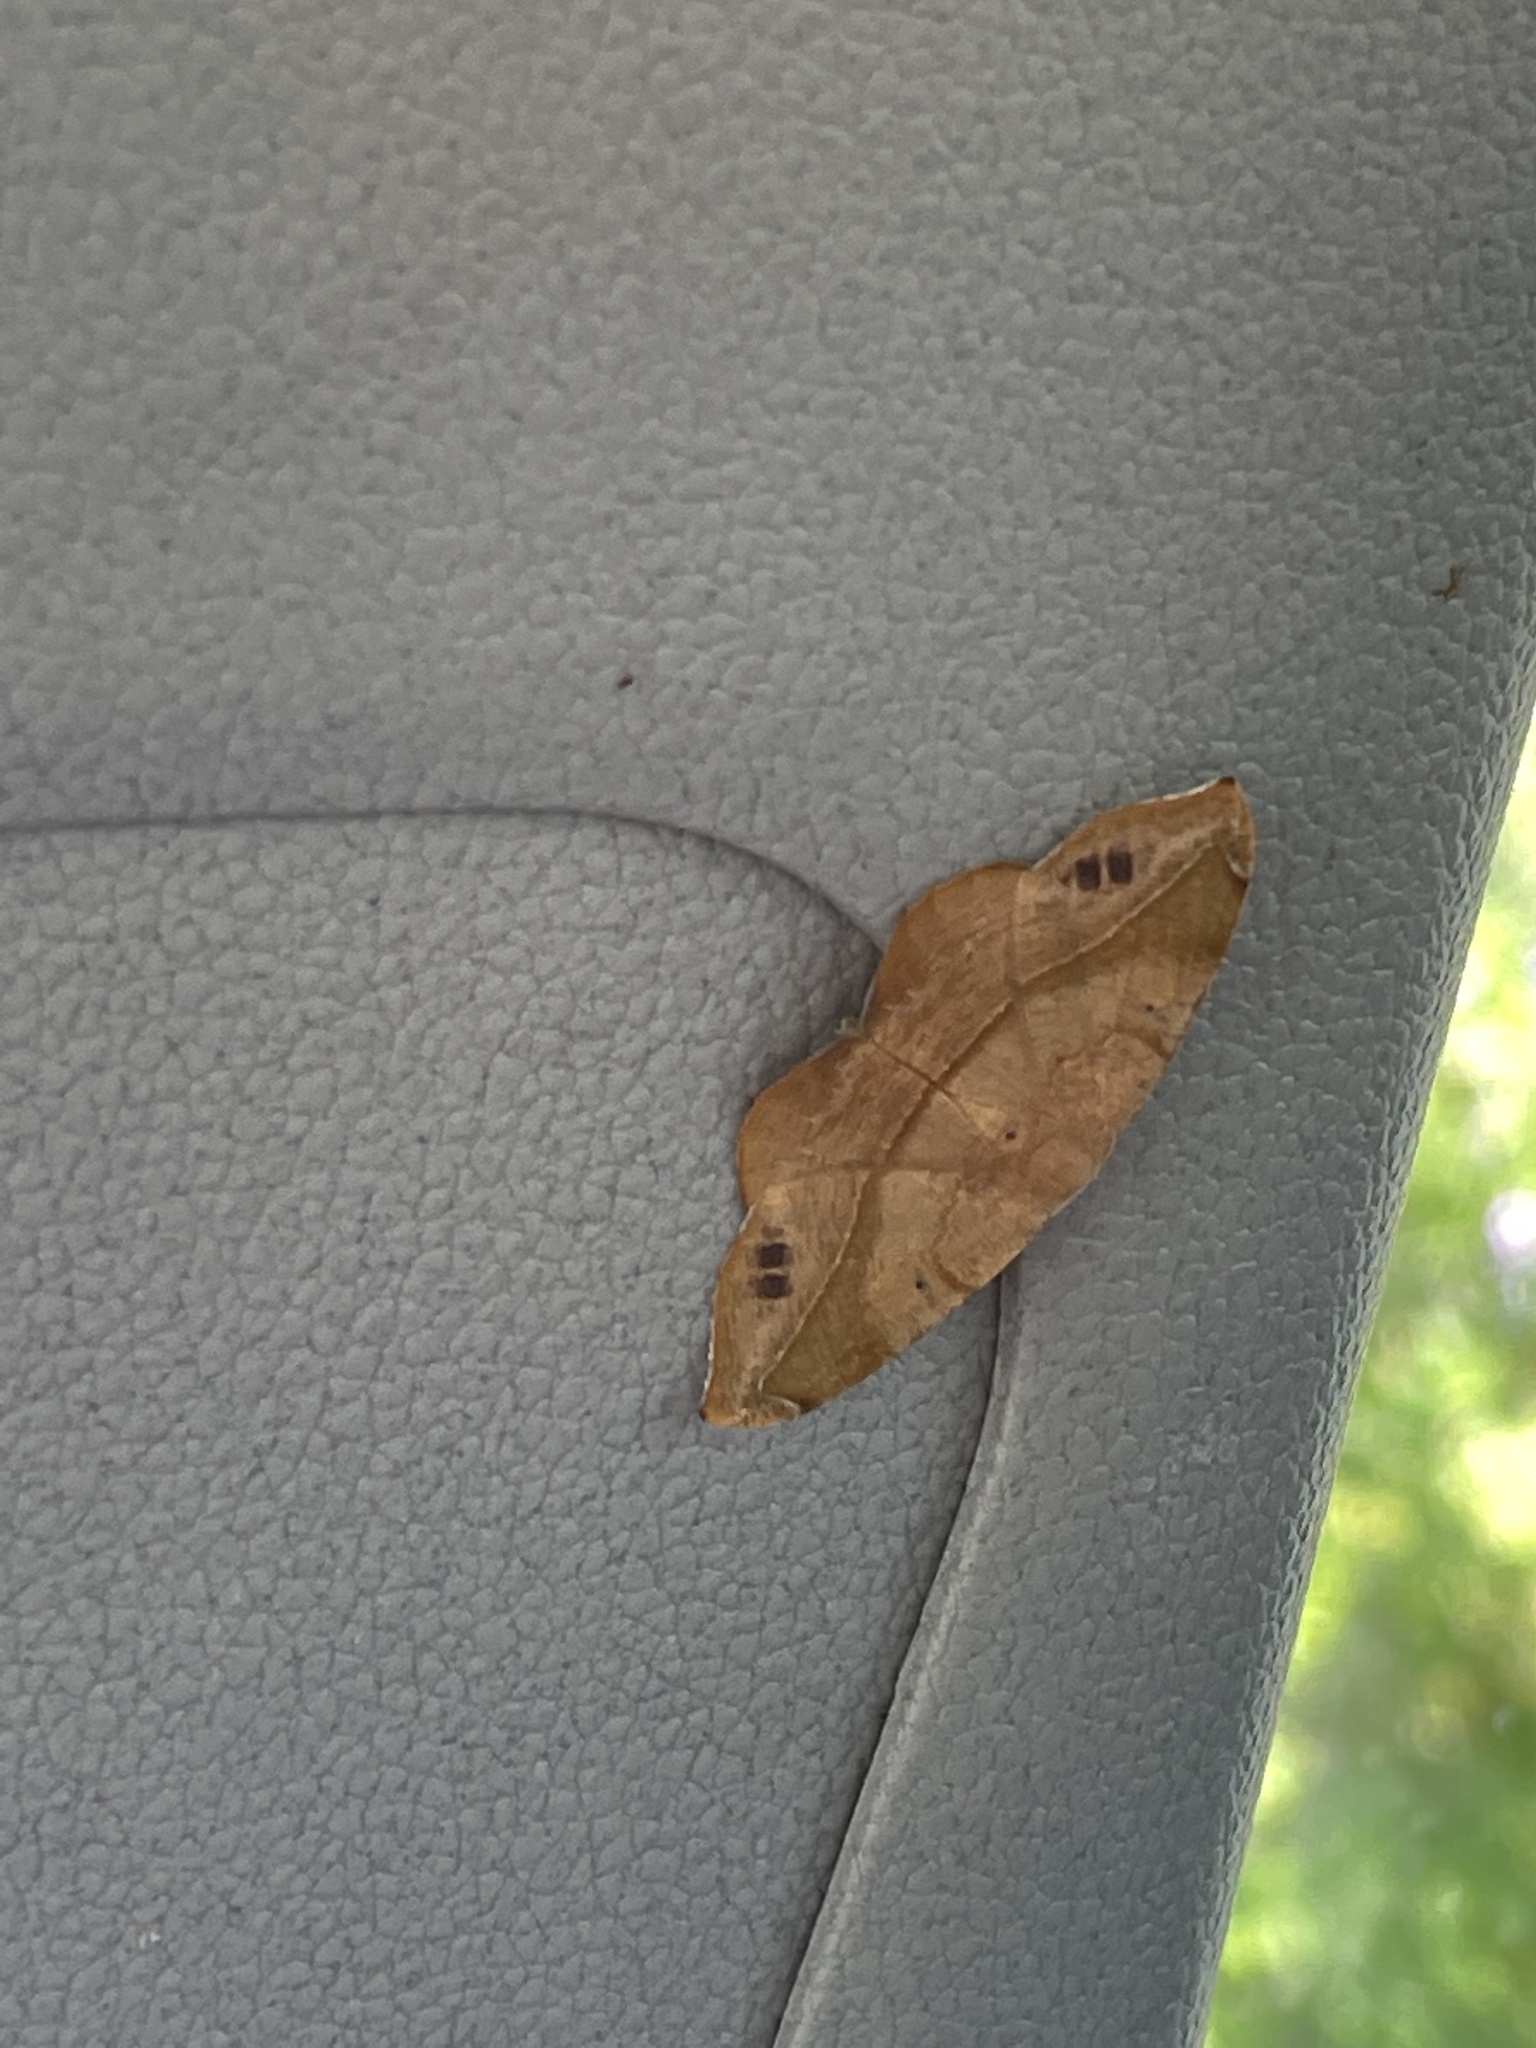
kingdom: Animalia
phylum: Arthropoda
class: Insecta
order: Lepidoptera
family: Geometridae
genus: Patalene
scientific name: Patalene olyzonaria
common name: Juniper geometer moth
